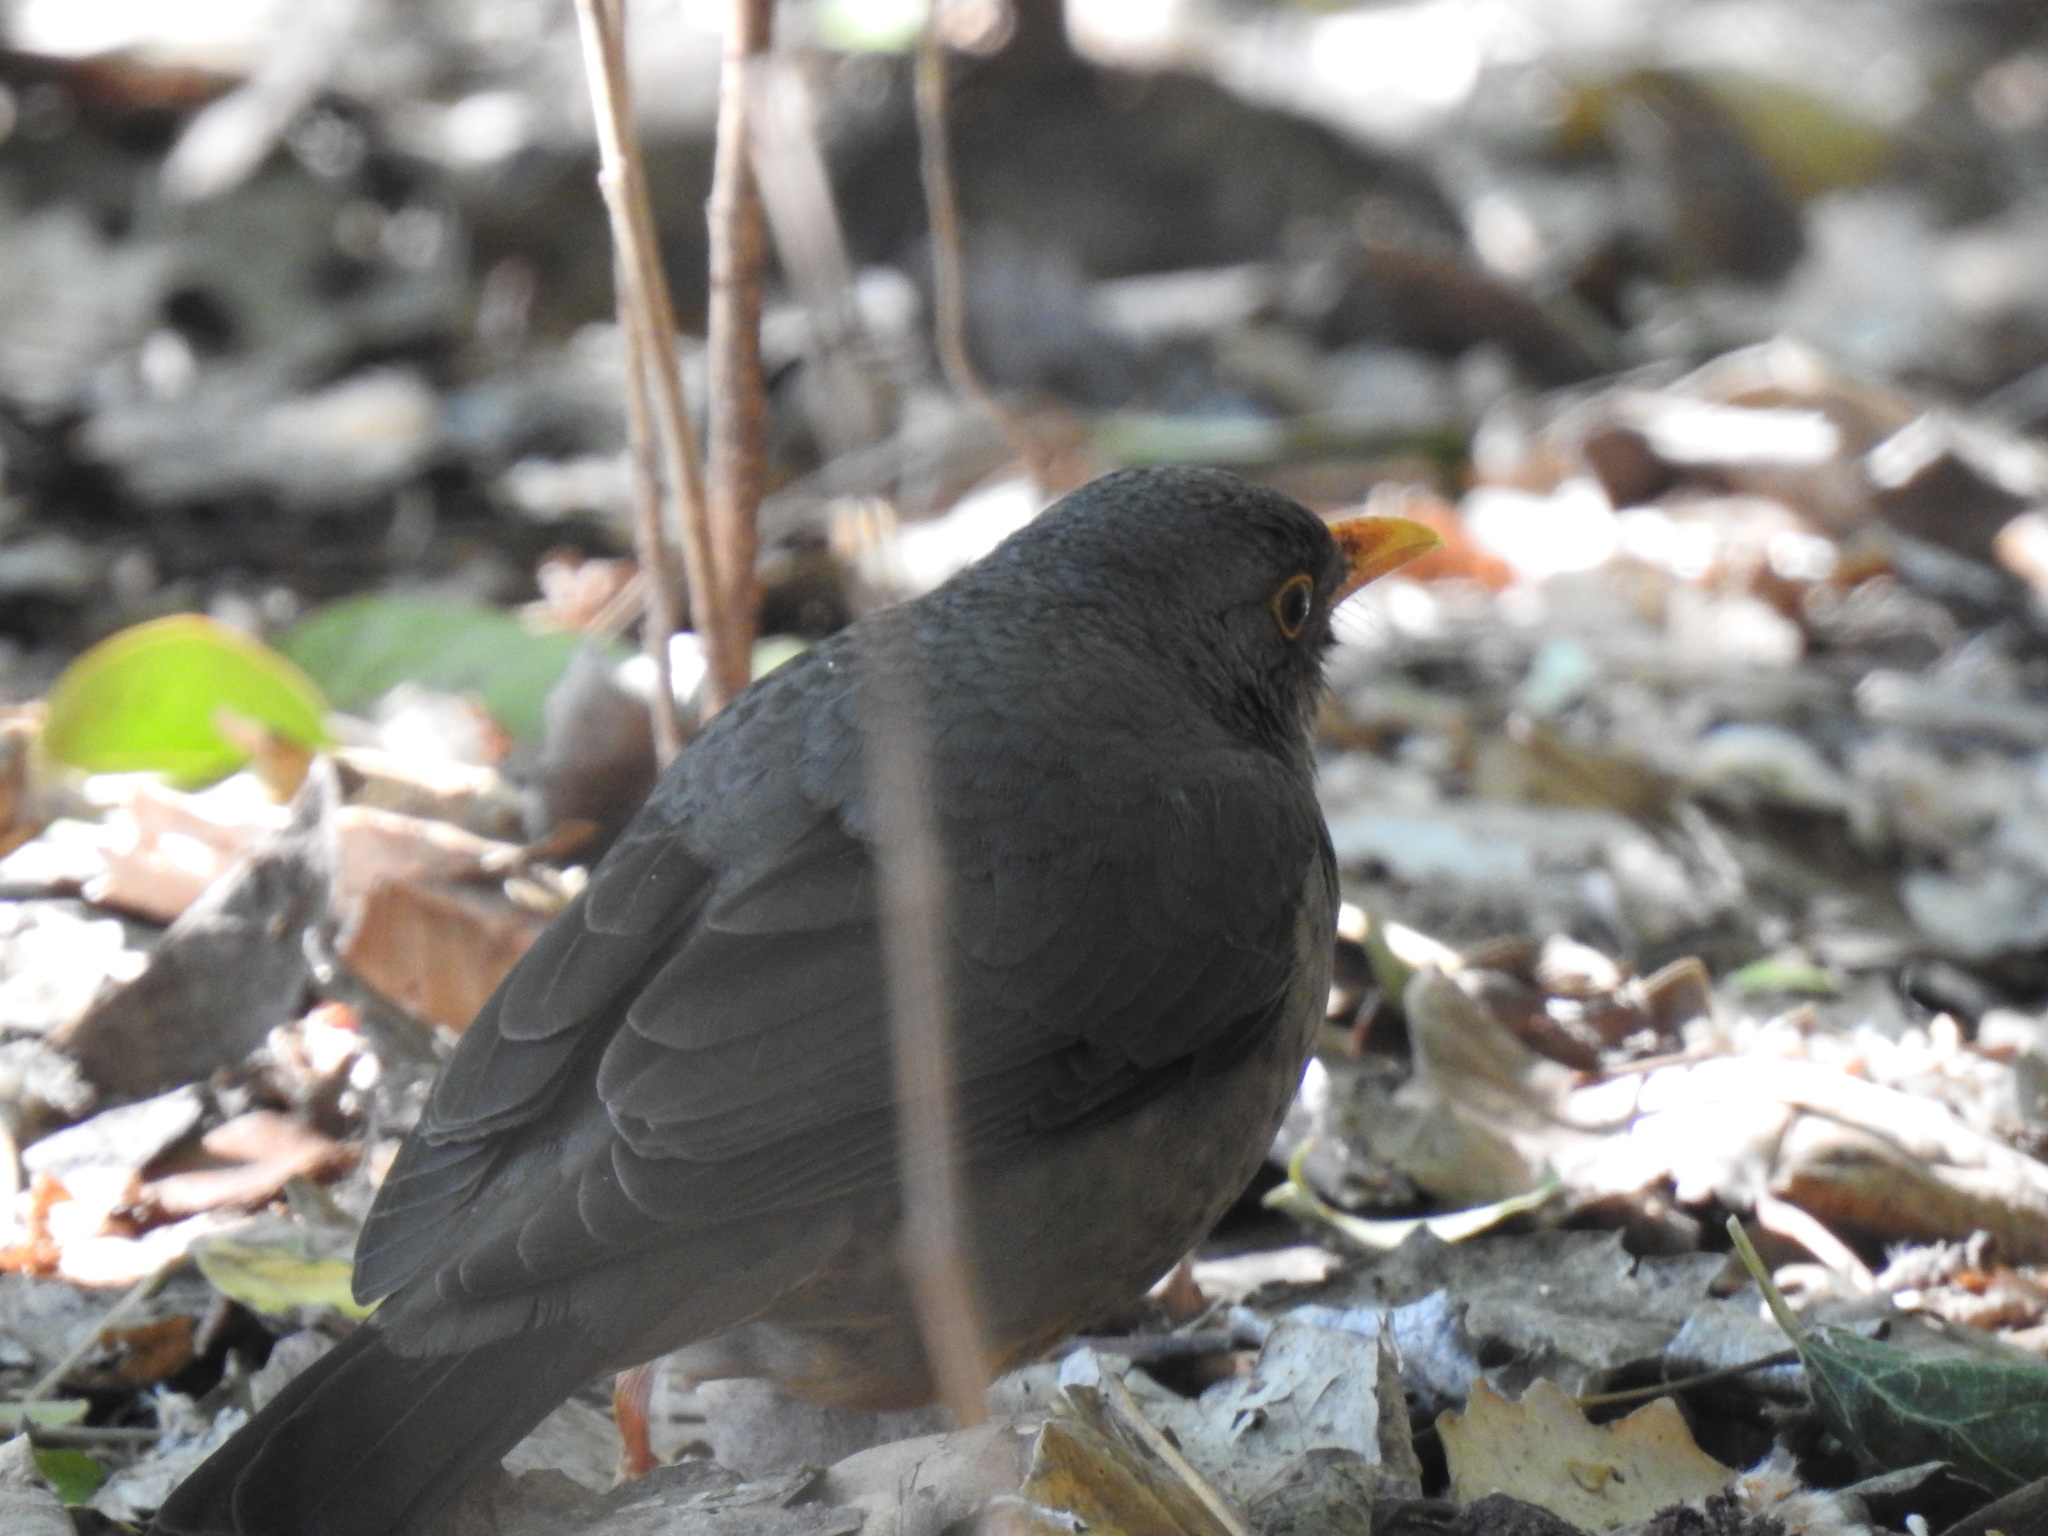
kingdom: Animalia
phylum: Chordata
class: Aves
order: Passeriformes
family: Turdidae
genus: Turdus
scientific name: Turdus smithi
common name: Karoo thrush
